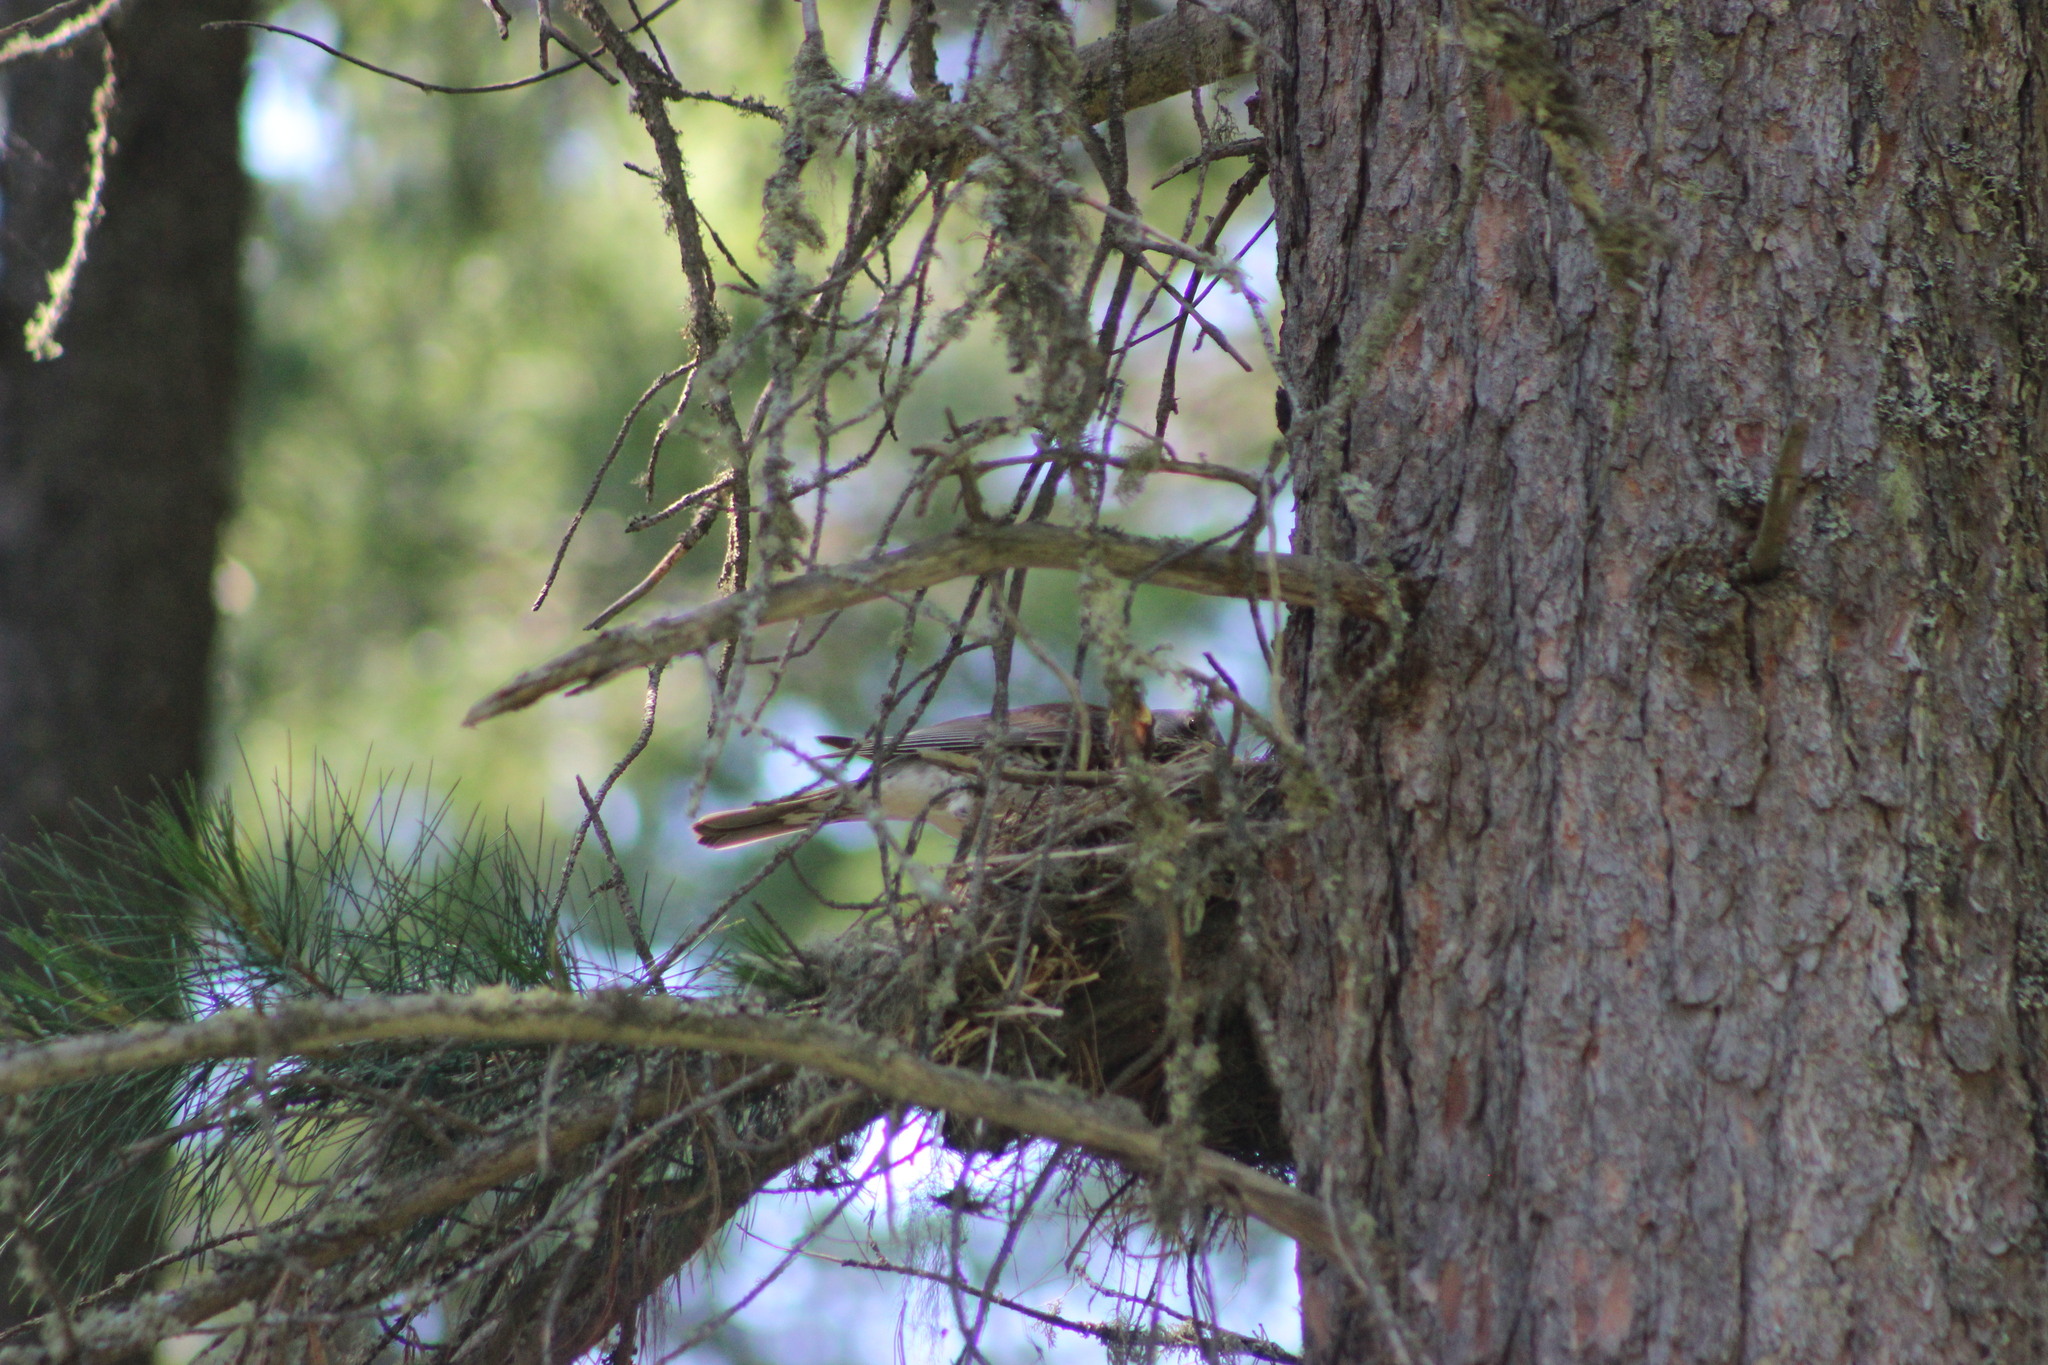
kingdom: Animalia
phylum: Chordata
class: Aves
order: Passeriformes
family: Turdidae
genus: Turdus
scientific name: Turdus pilaris
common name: Fieldfare
